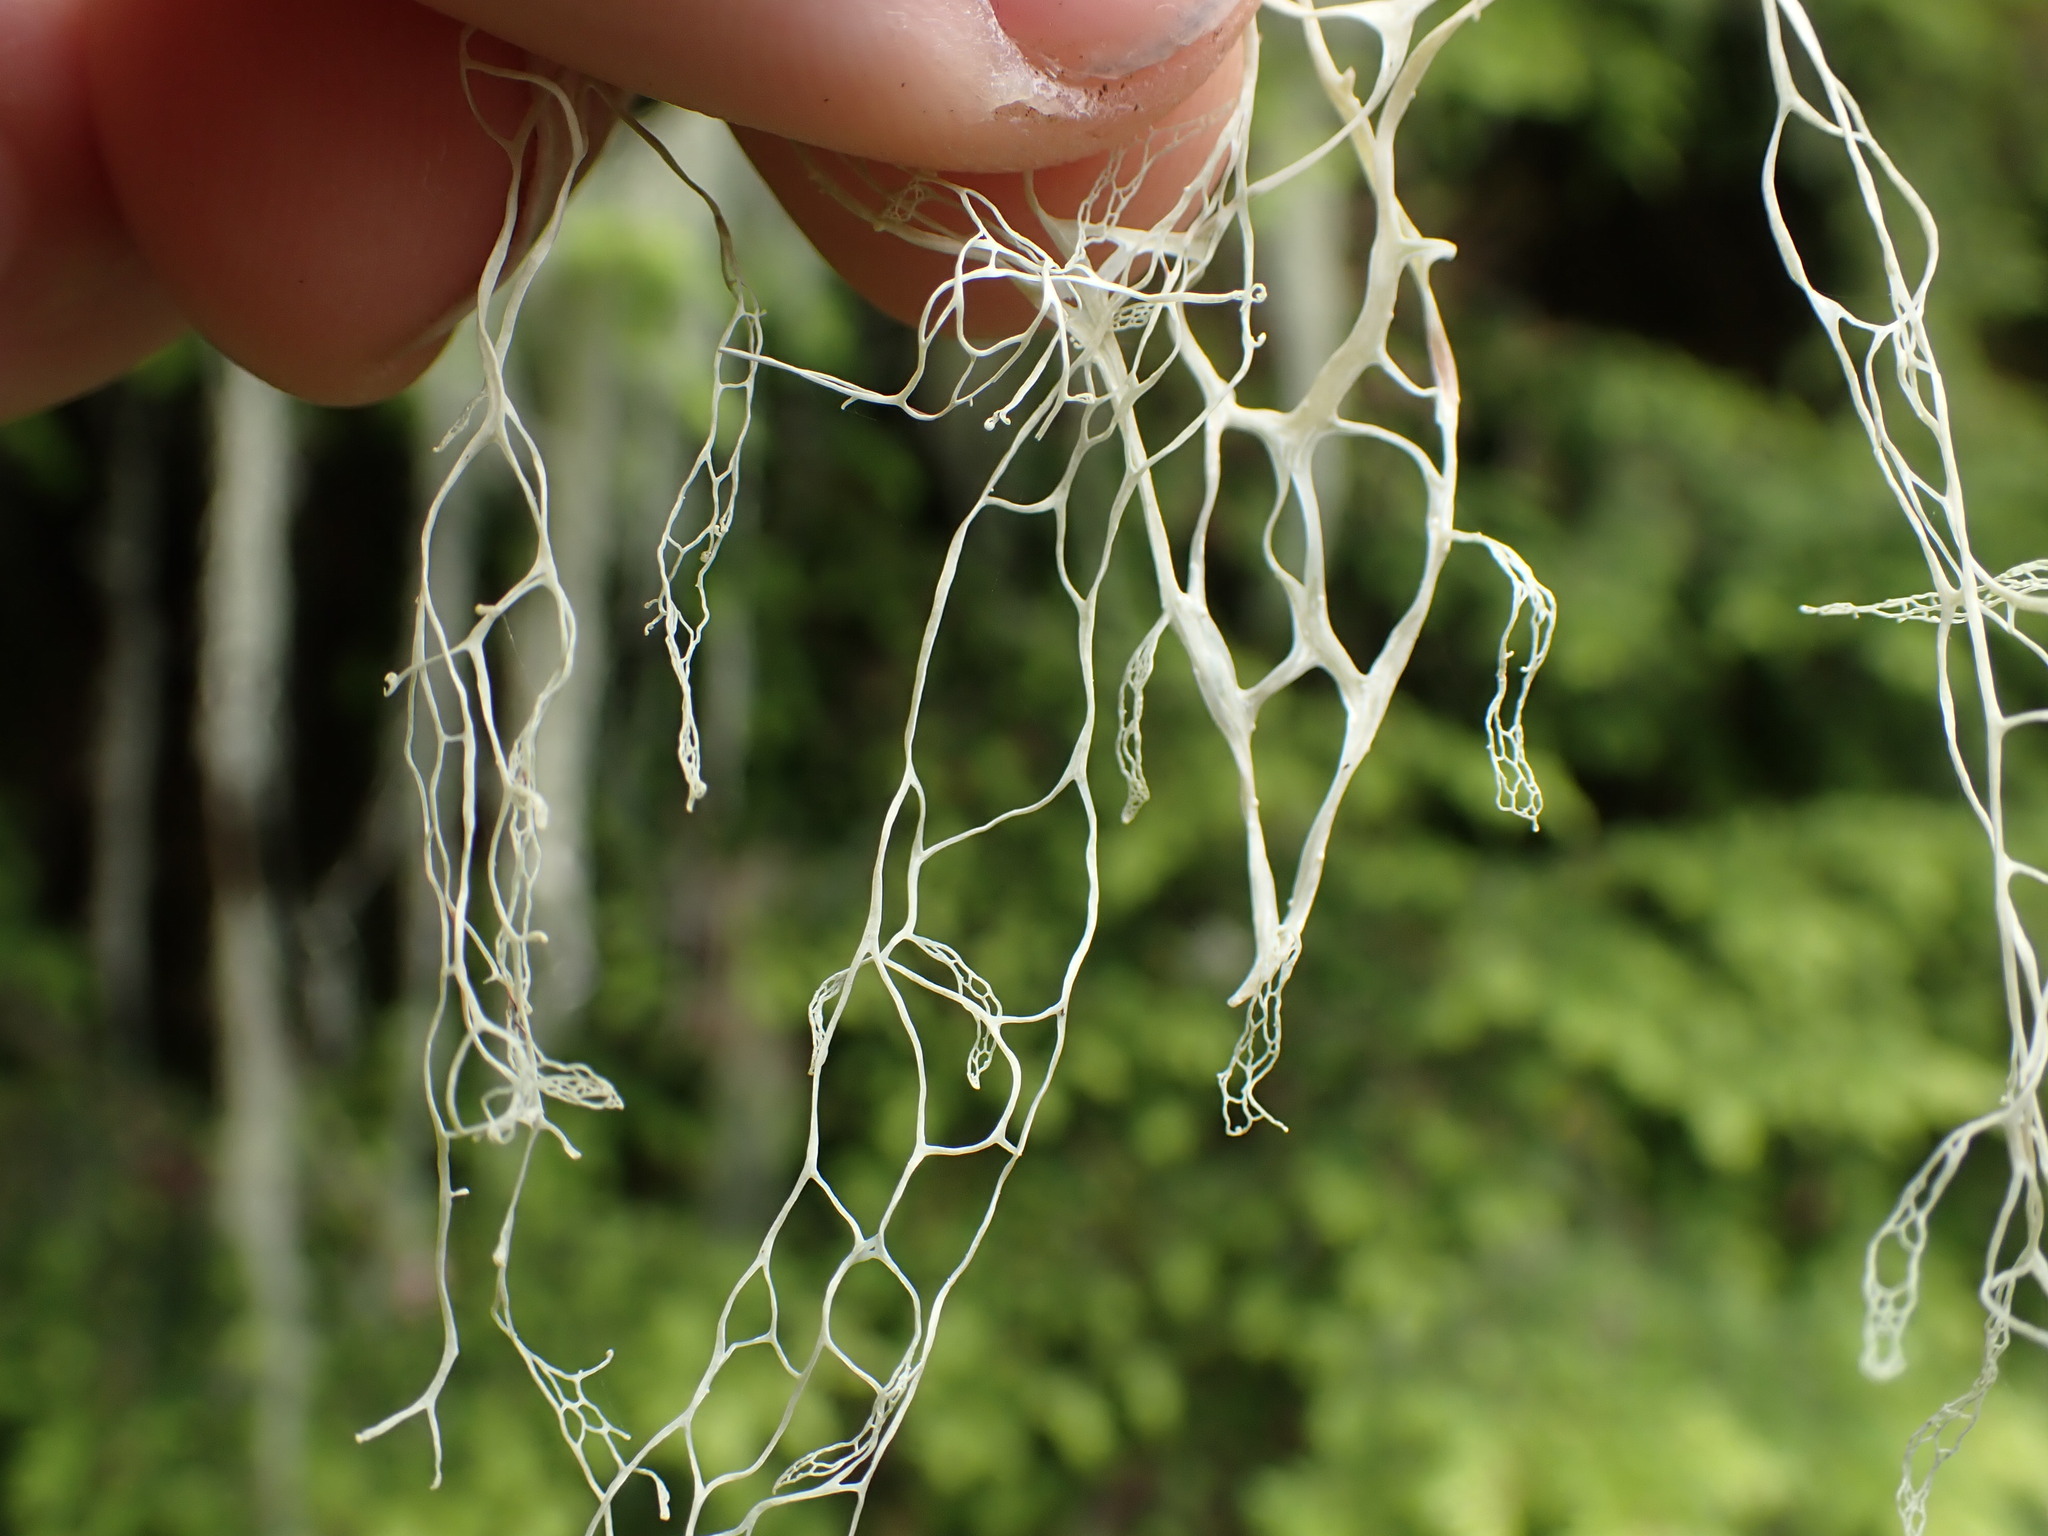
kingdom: Fungi
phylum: Ascomycota
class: Lecanoromycetes
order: Lecanorales
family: Ramalinaceae
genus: Ramalina
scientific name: Ramalina menziesii
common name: Lace lichen
